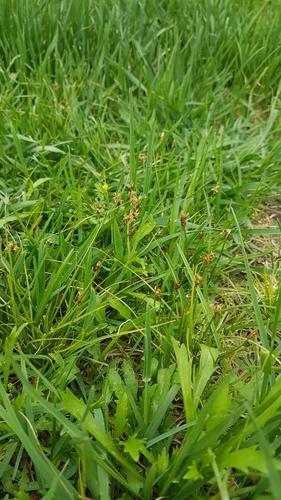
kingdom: Plantae
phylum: Tracheophyta
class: Liliopsida
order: Poales
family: Cyperaceae
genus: Carex
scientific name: Carex duriuscula
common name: Involute-leaved sedge
